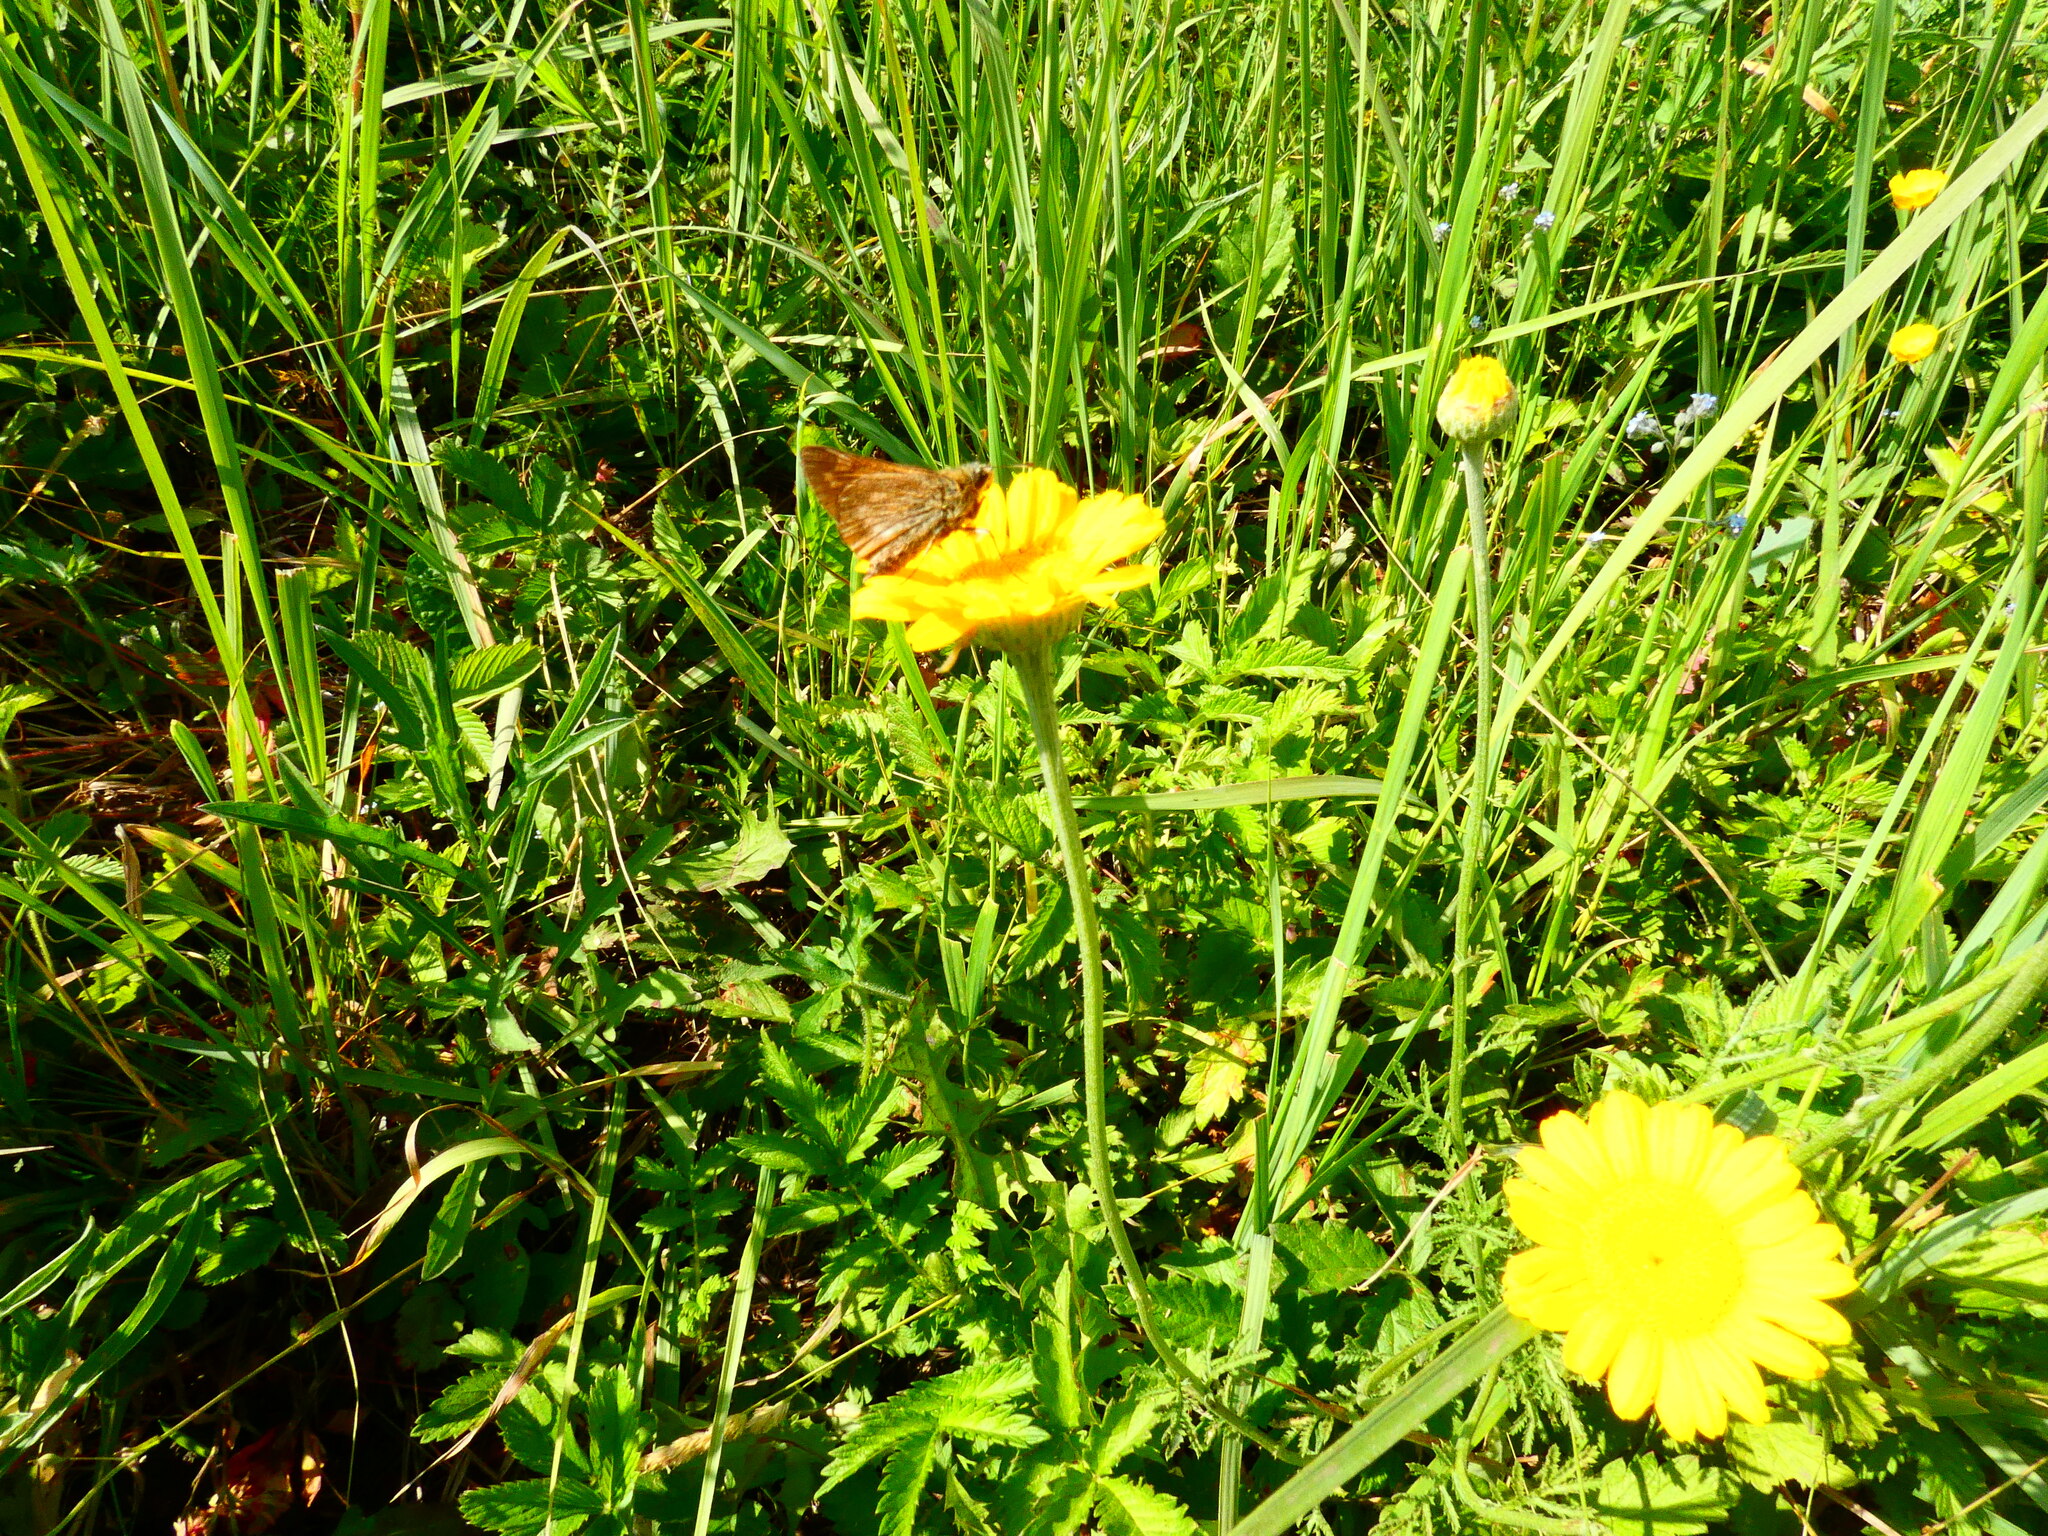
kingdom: Animalia
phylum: Arthropoda
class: Insecta
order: Lepidoptera
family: Hesperiidae
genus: Ochlodes
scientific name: Ochlodes venata
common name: Large skipper
